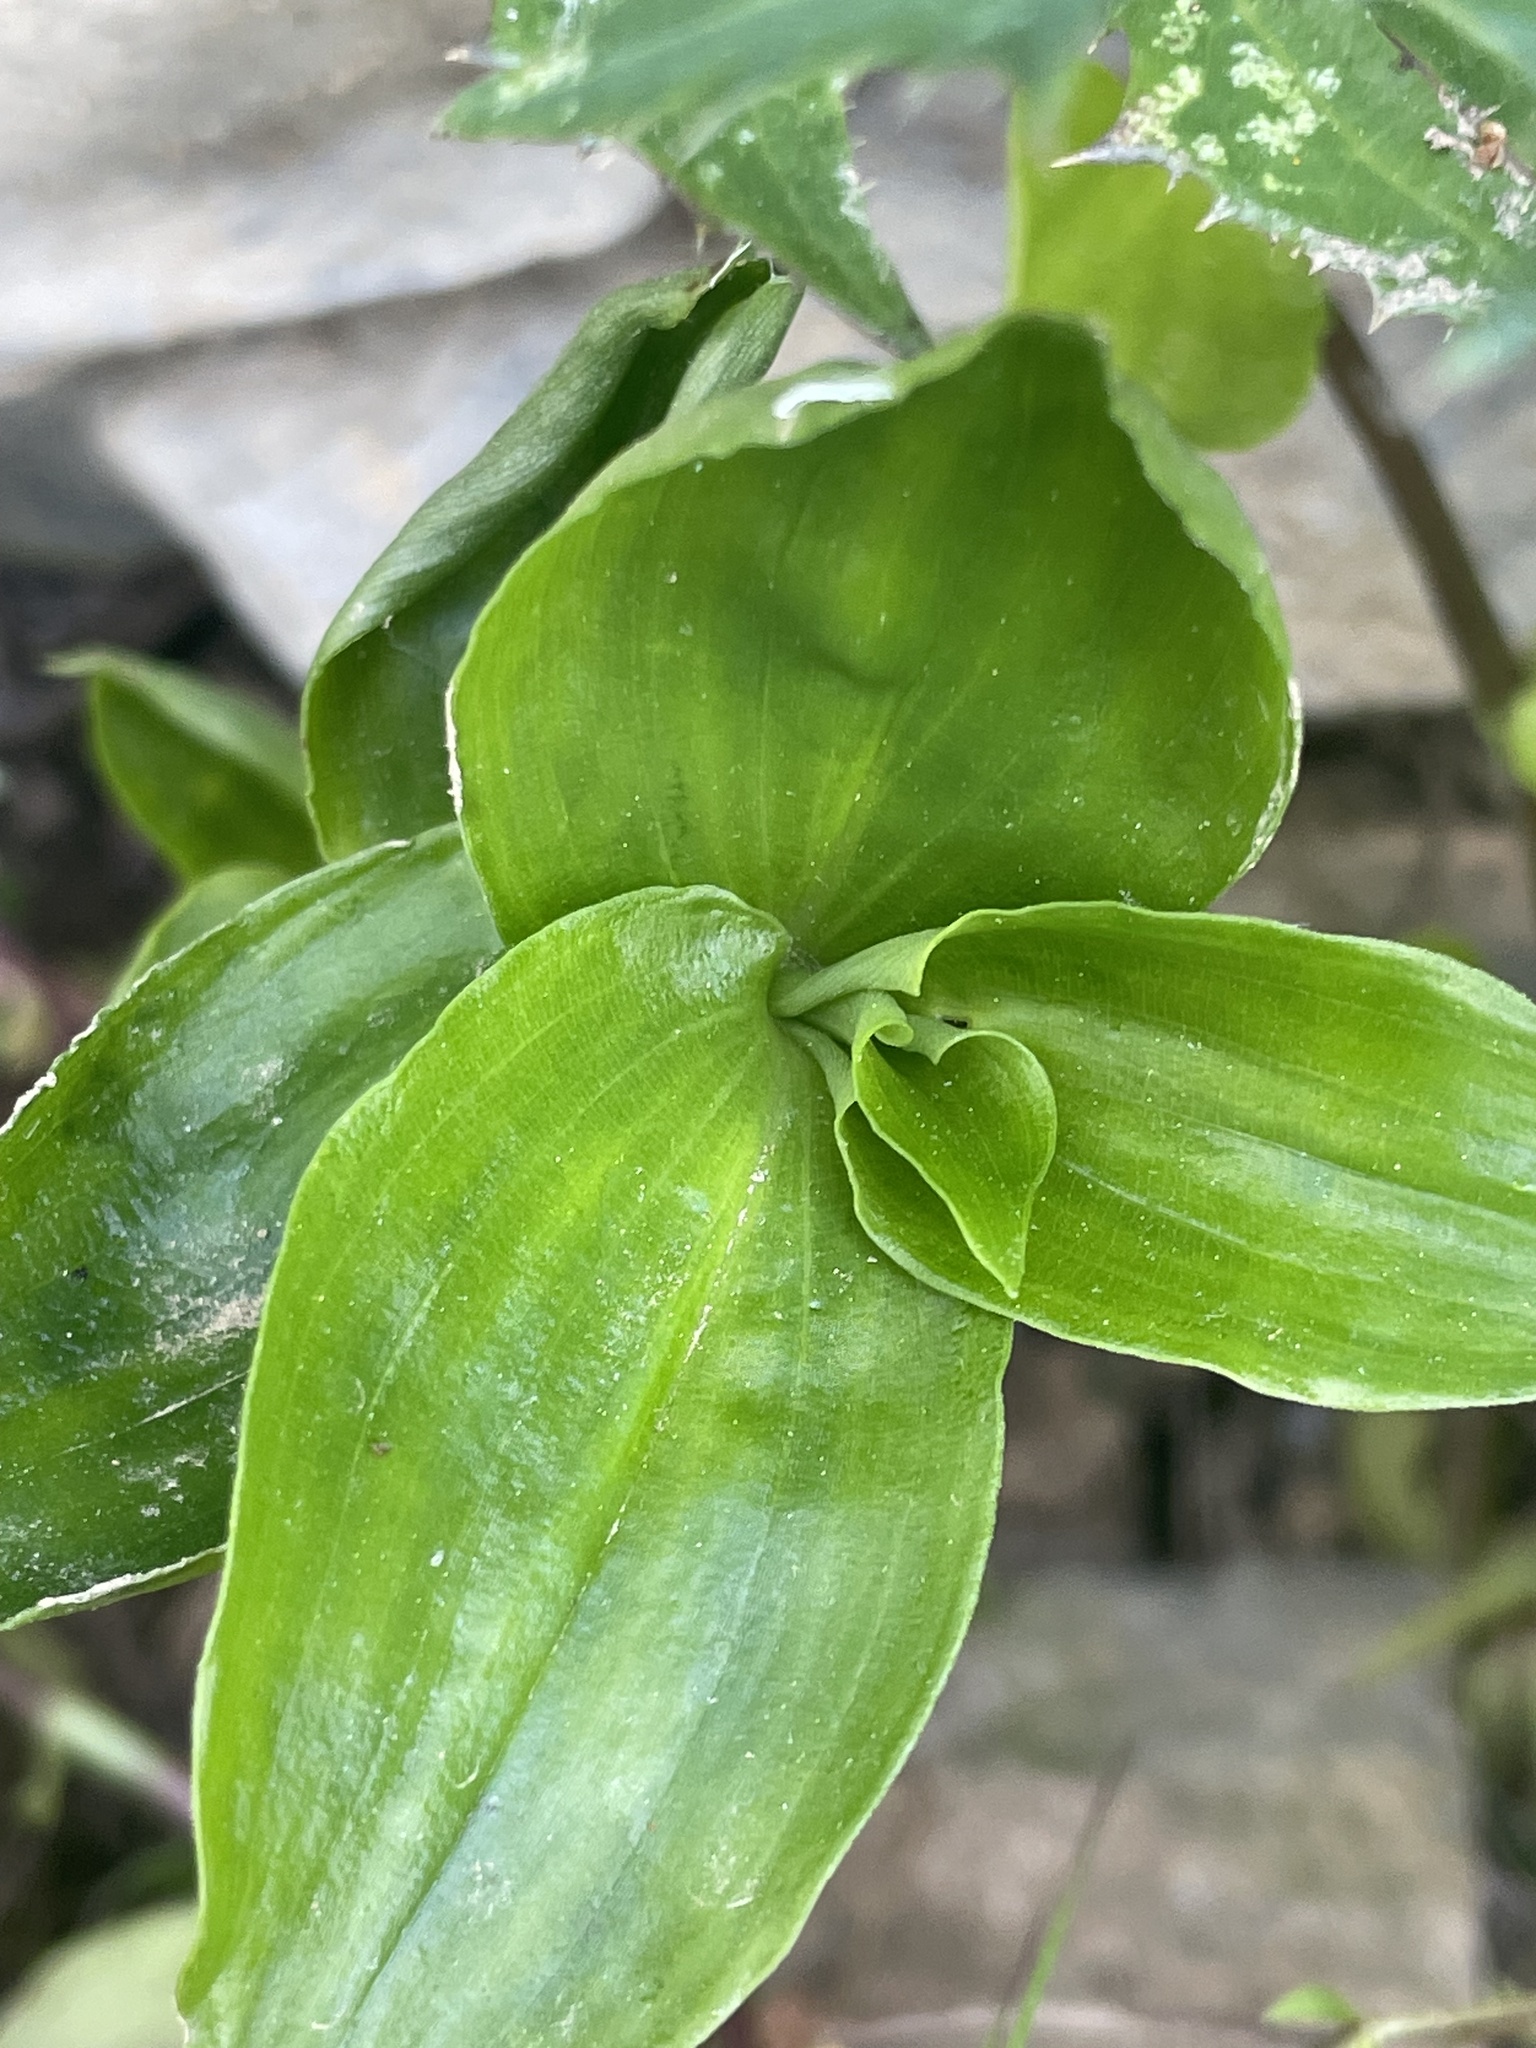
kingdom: Plantae
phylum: Tracheophyta
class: Liliopsida
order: Commelinales
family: Commelinaceae
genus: Tradescantia
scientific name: Tradescantia fluminensis
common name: Wandering-jew
